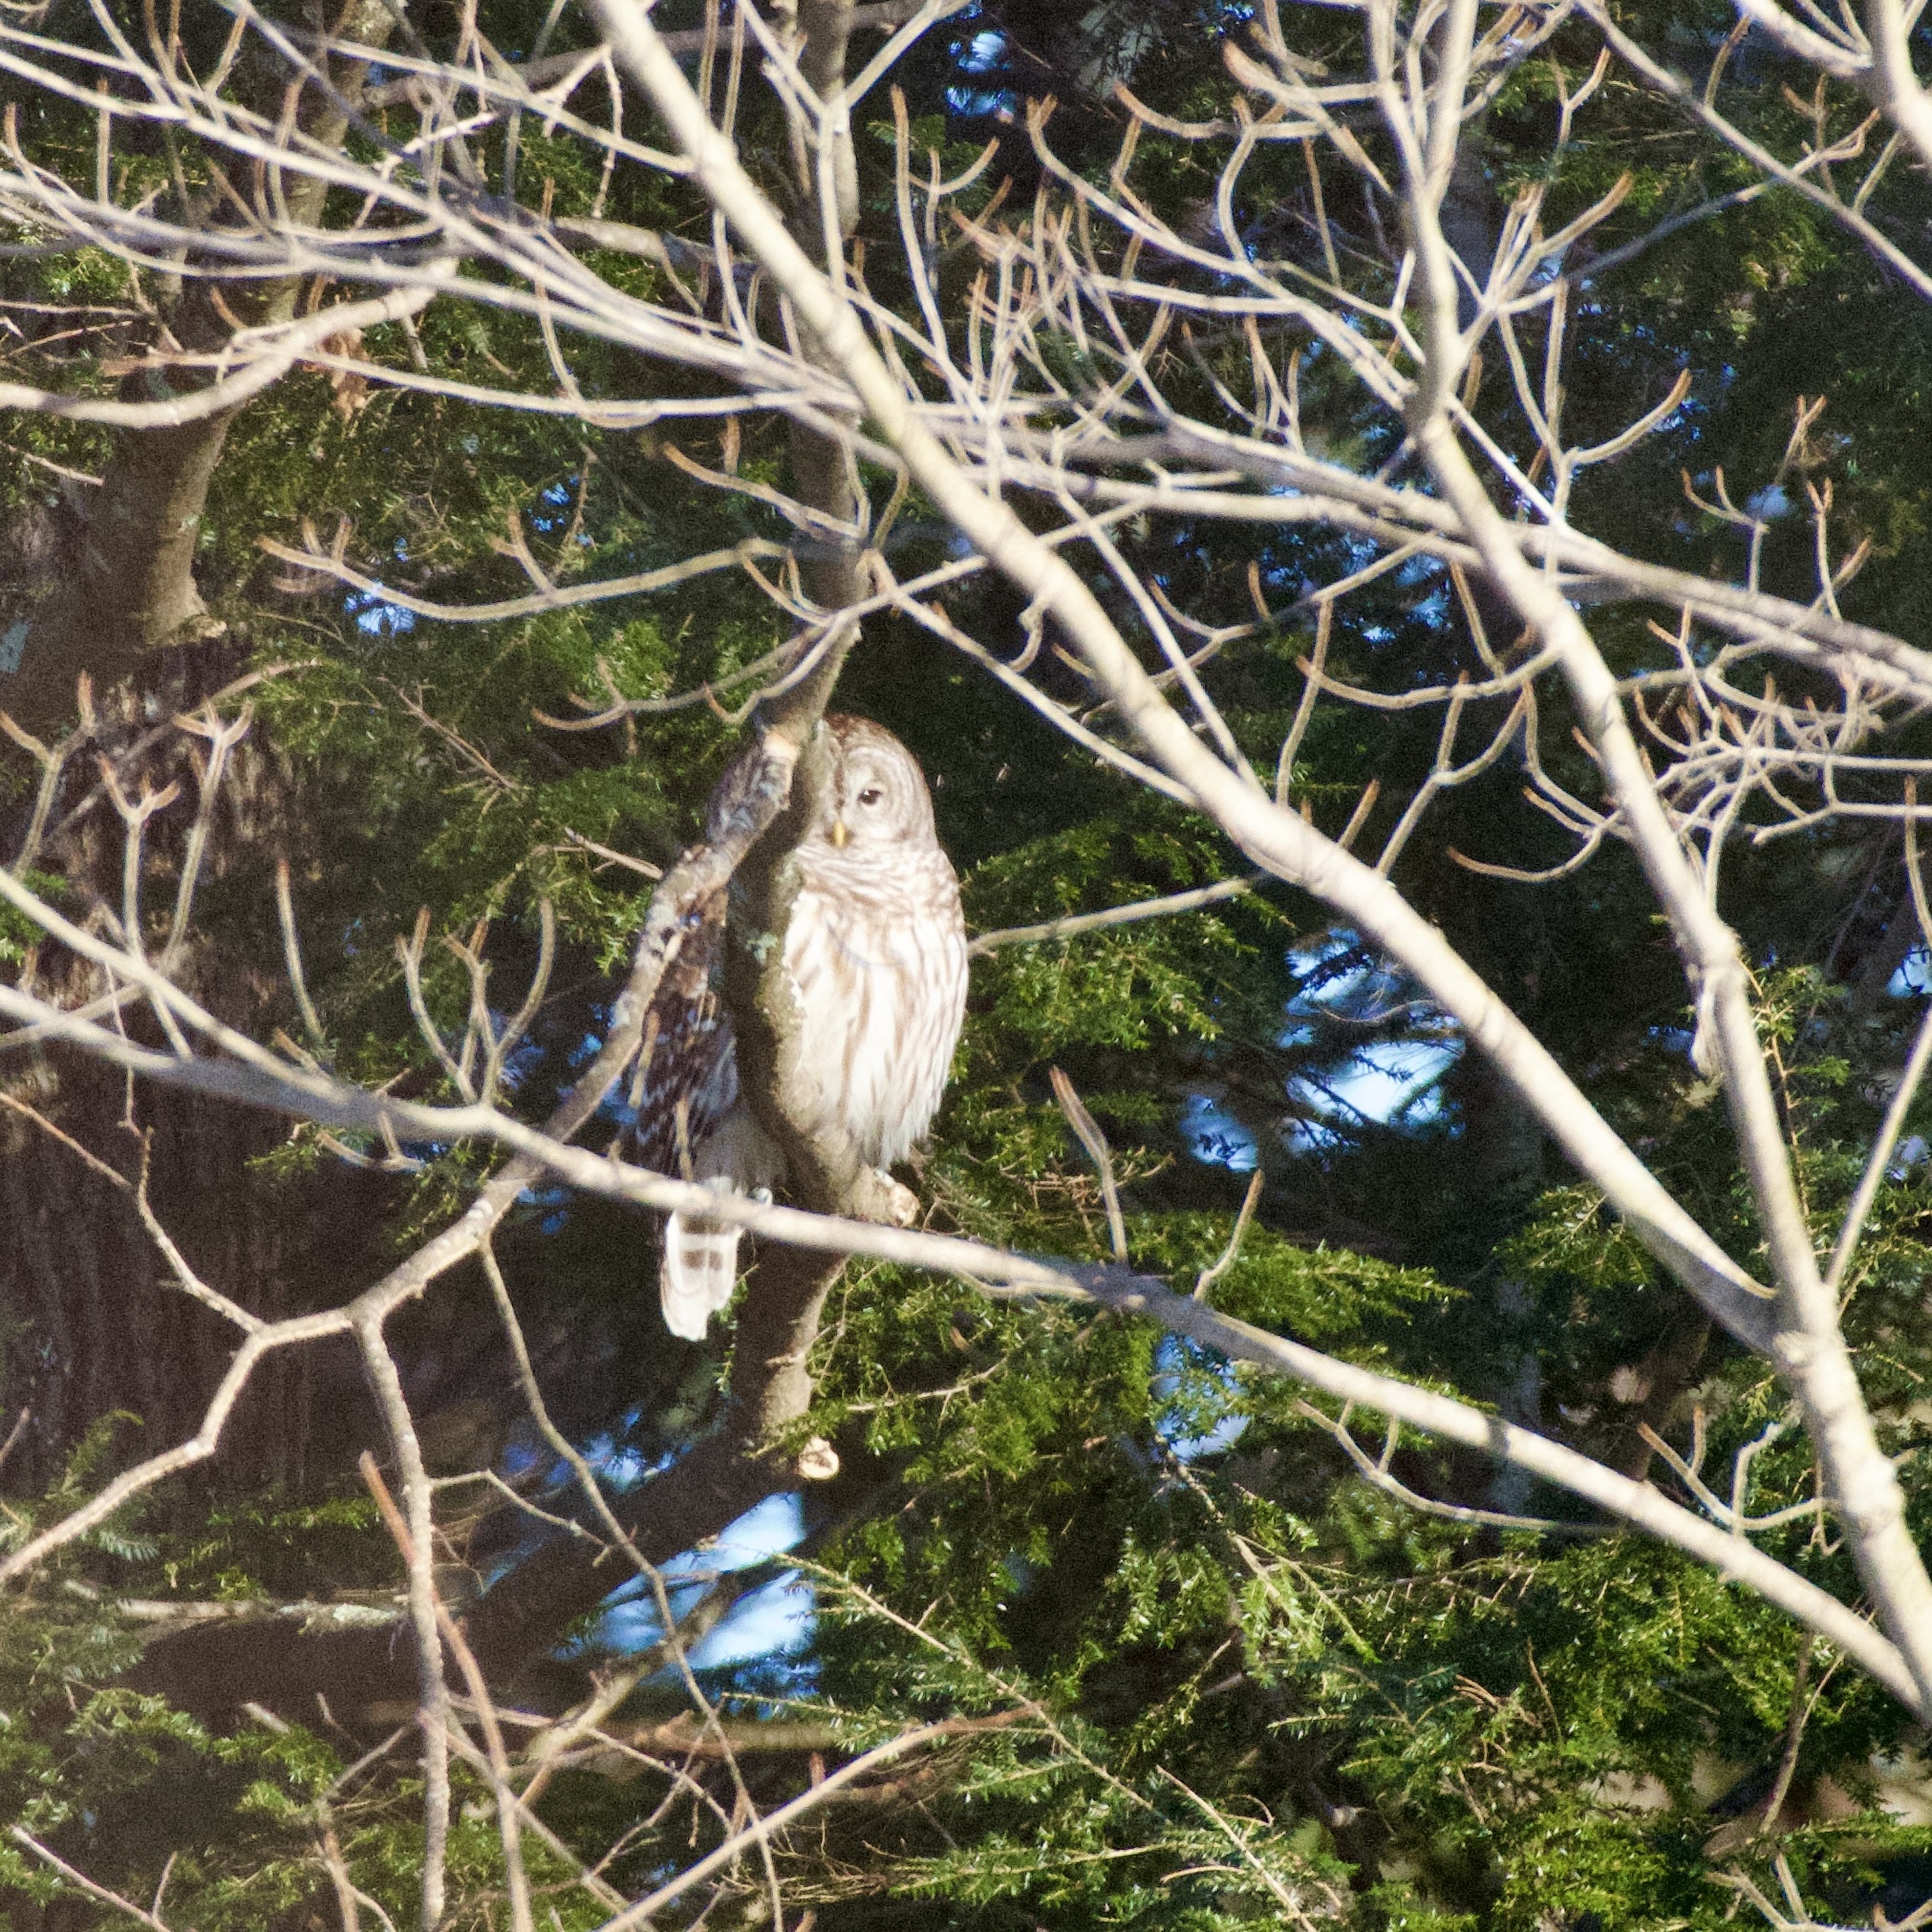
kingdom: Animalia
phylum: Chordata
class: Aves
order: Strigiformes
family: Strigidae
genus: Strix
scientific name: Strix varia
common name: Barred owl
